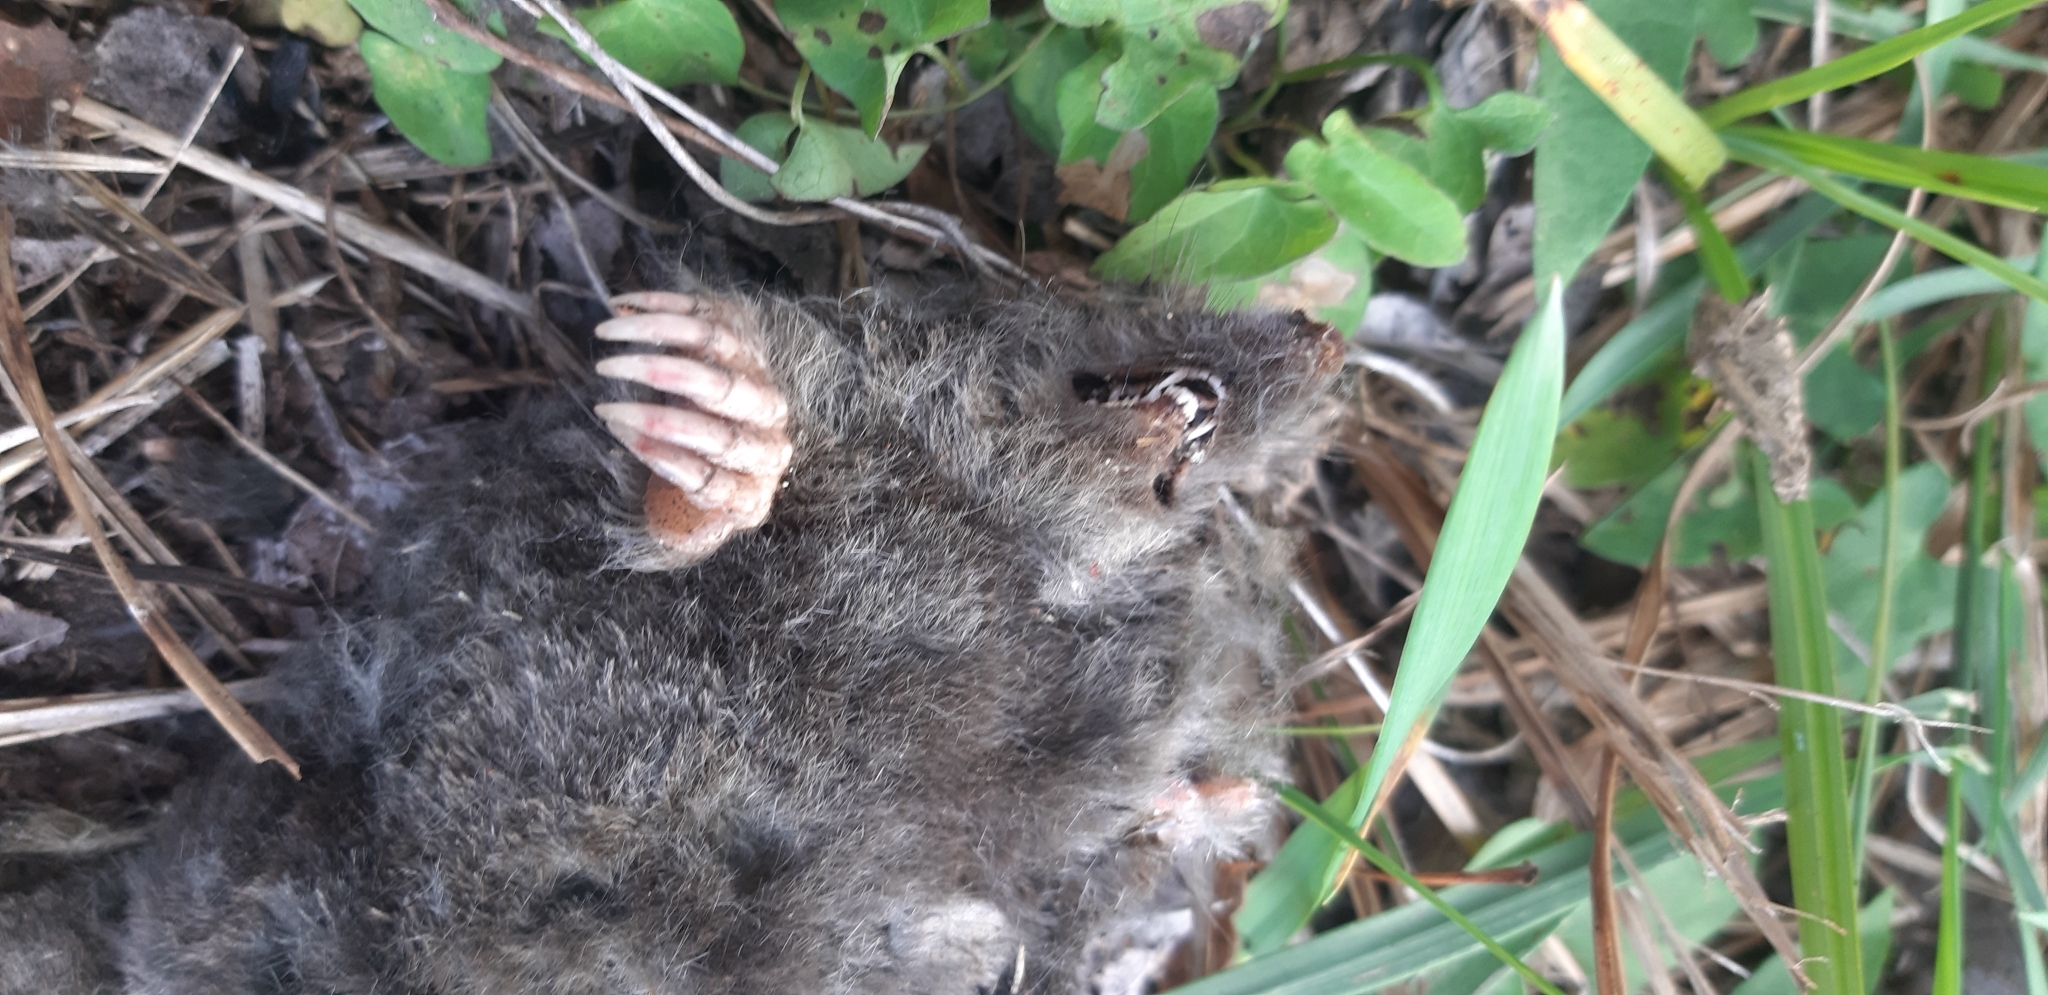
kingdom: Animalia
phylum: Chordata
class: Mammalia
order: Soricomorpha
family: Talpidae
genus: Talpa
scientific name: Talpa europaea
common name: European mole
